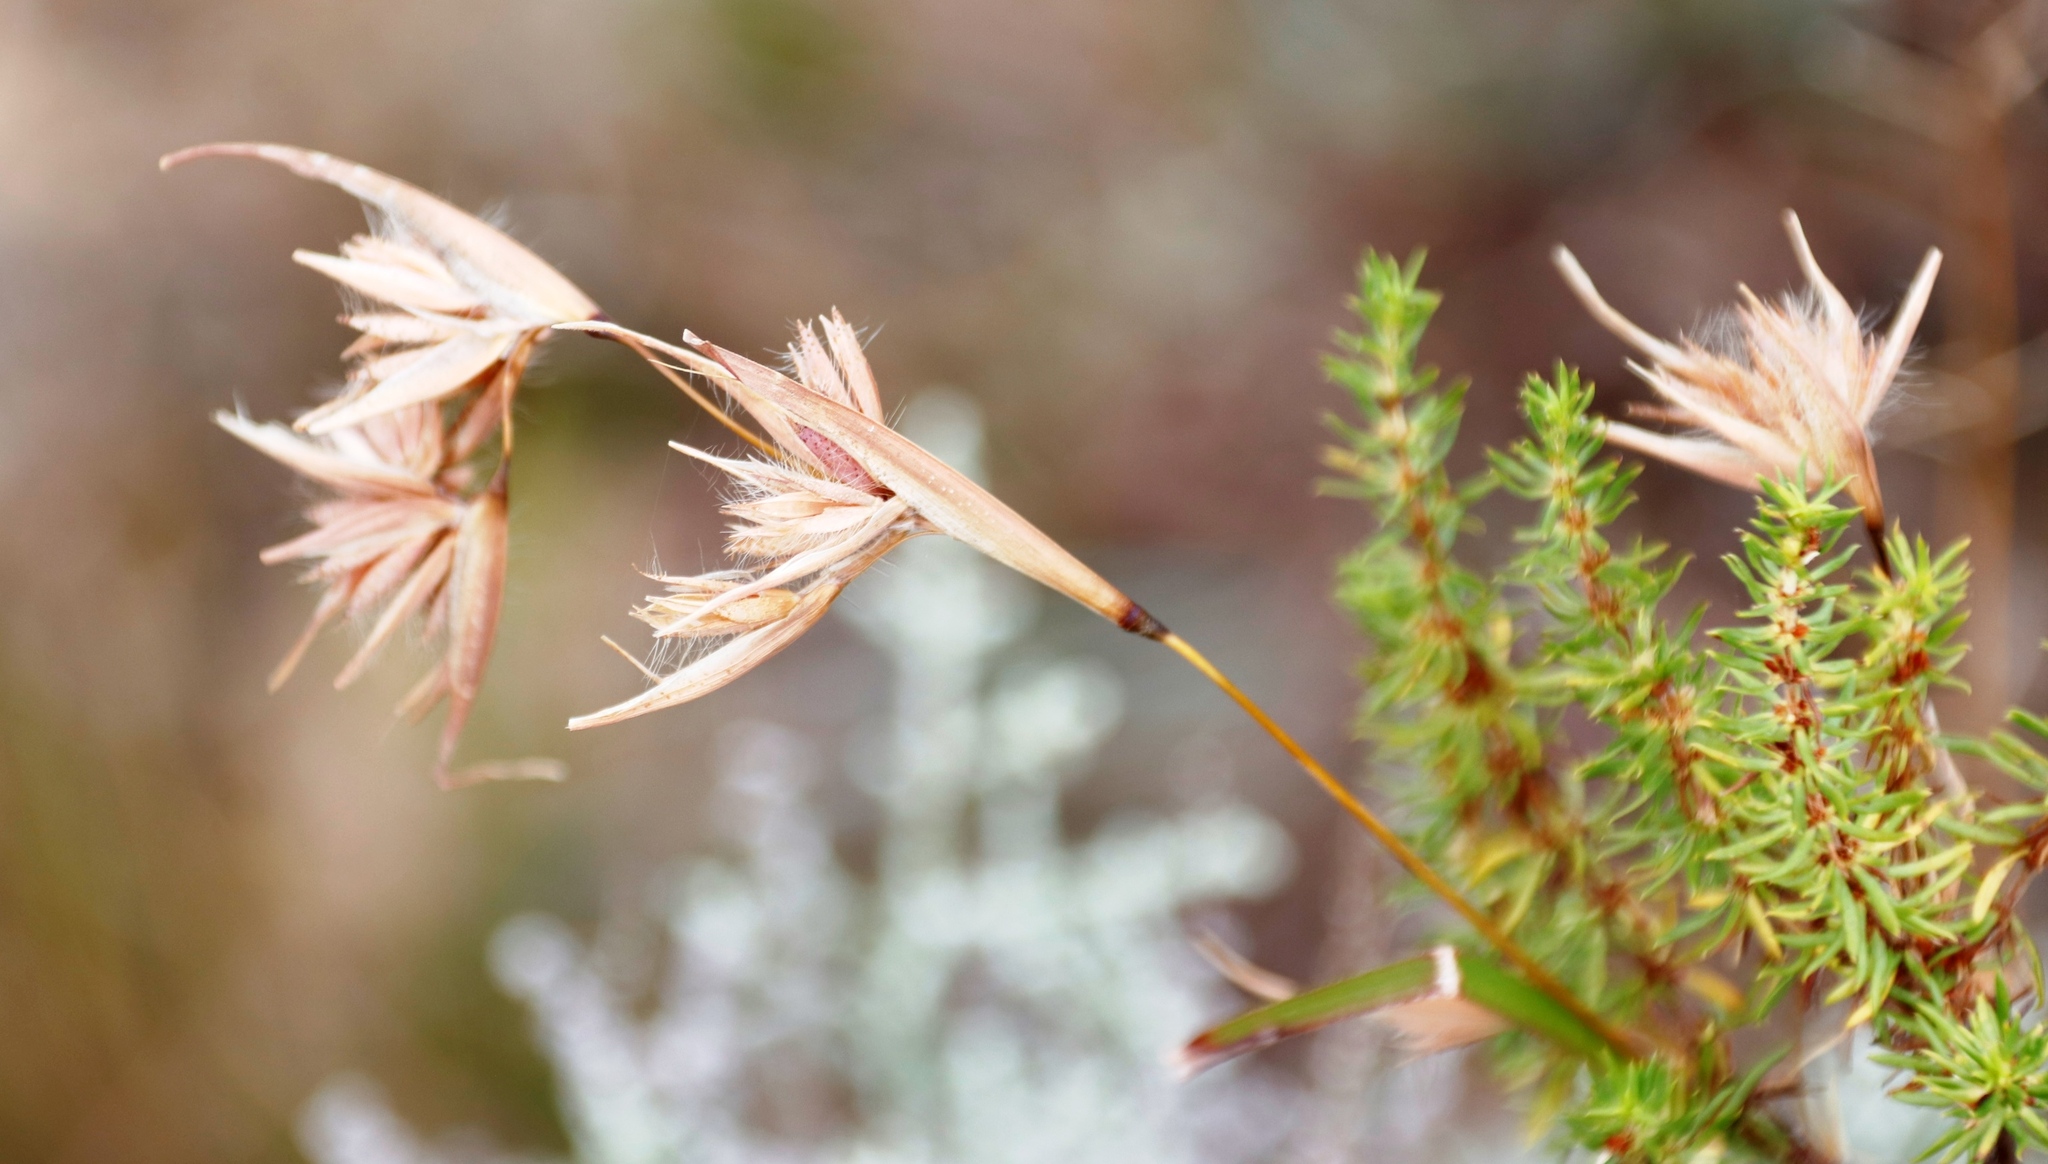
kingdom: Plantae
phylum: Tracheophyta
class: Liliopsida
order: Poales
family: Poaceae
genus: Themeda
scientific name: Themeda triandra
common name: Kangaroo grass
